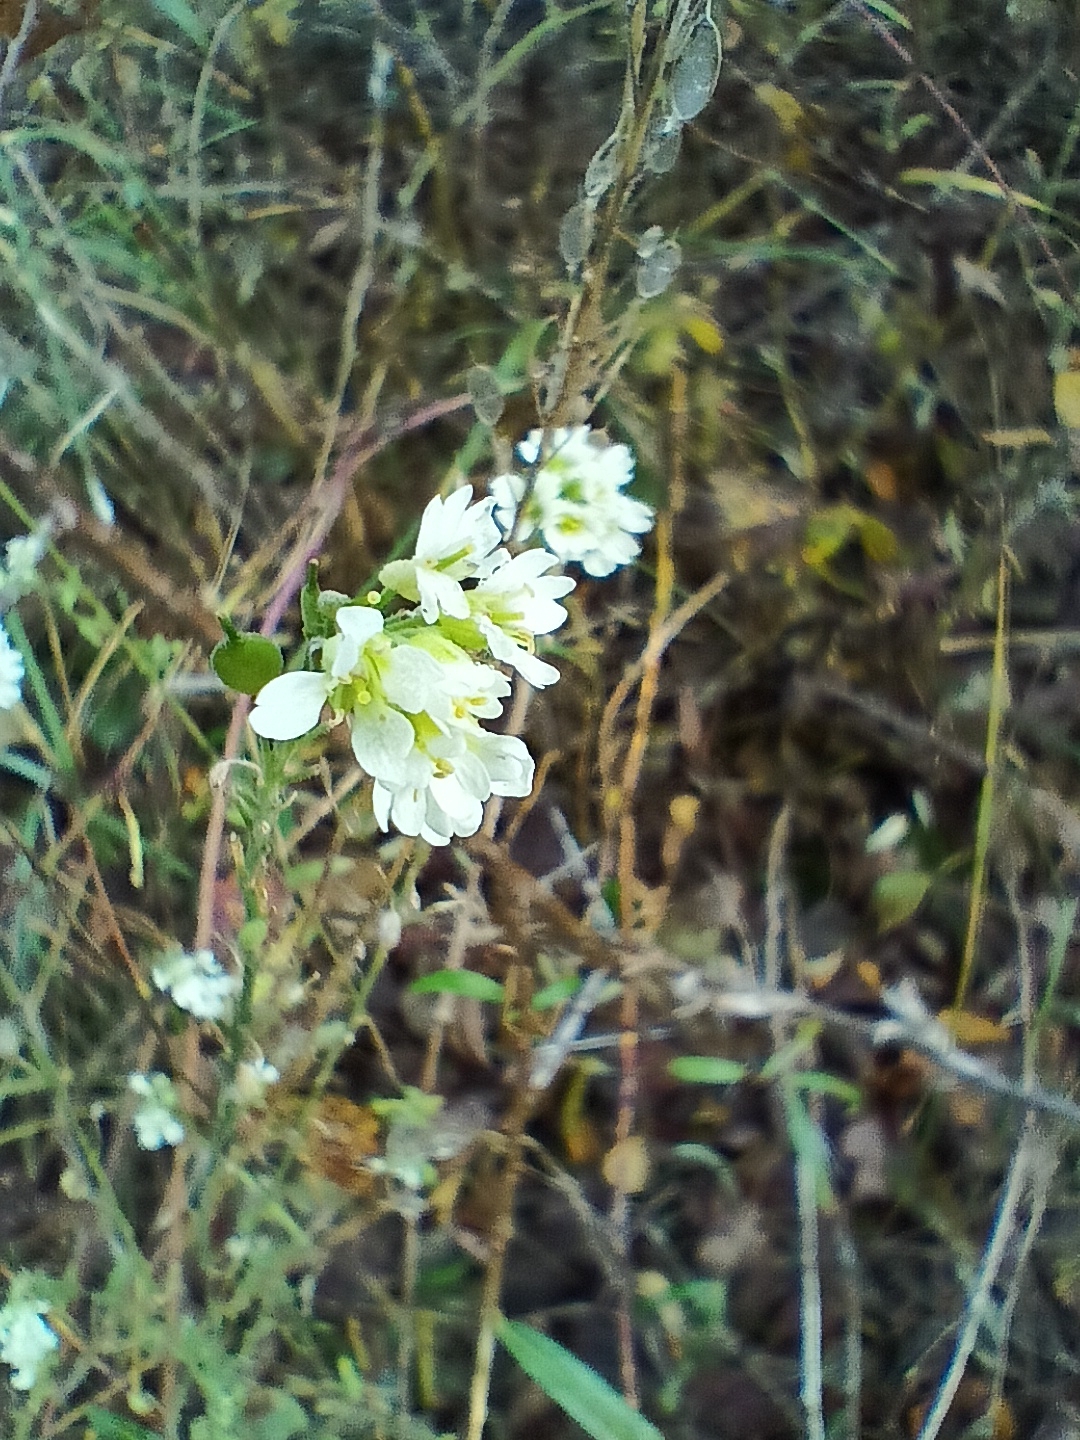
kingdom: Plantae
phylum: Tracheophyta
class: Magnoliopsida
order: Brassicales
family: Brassicaceae
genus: Berteroa
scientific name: Berteroa incana
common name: Hoary alison
